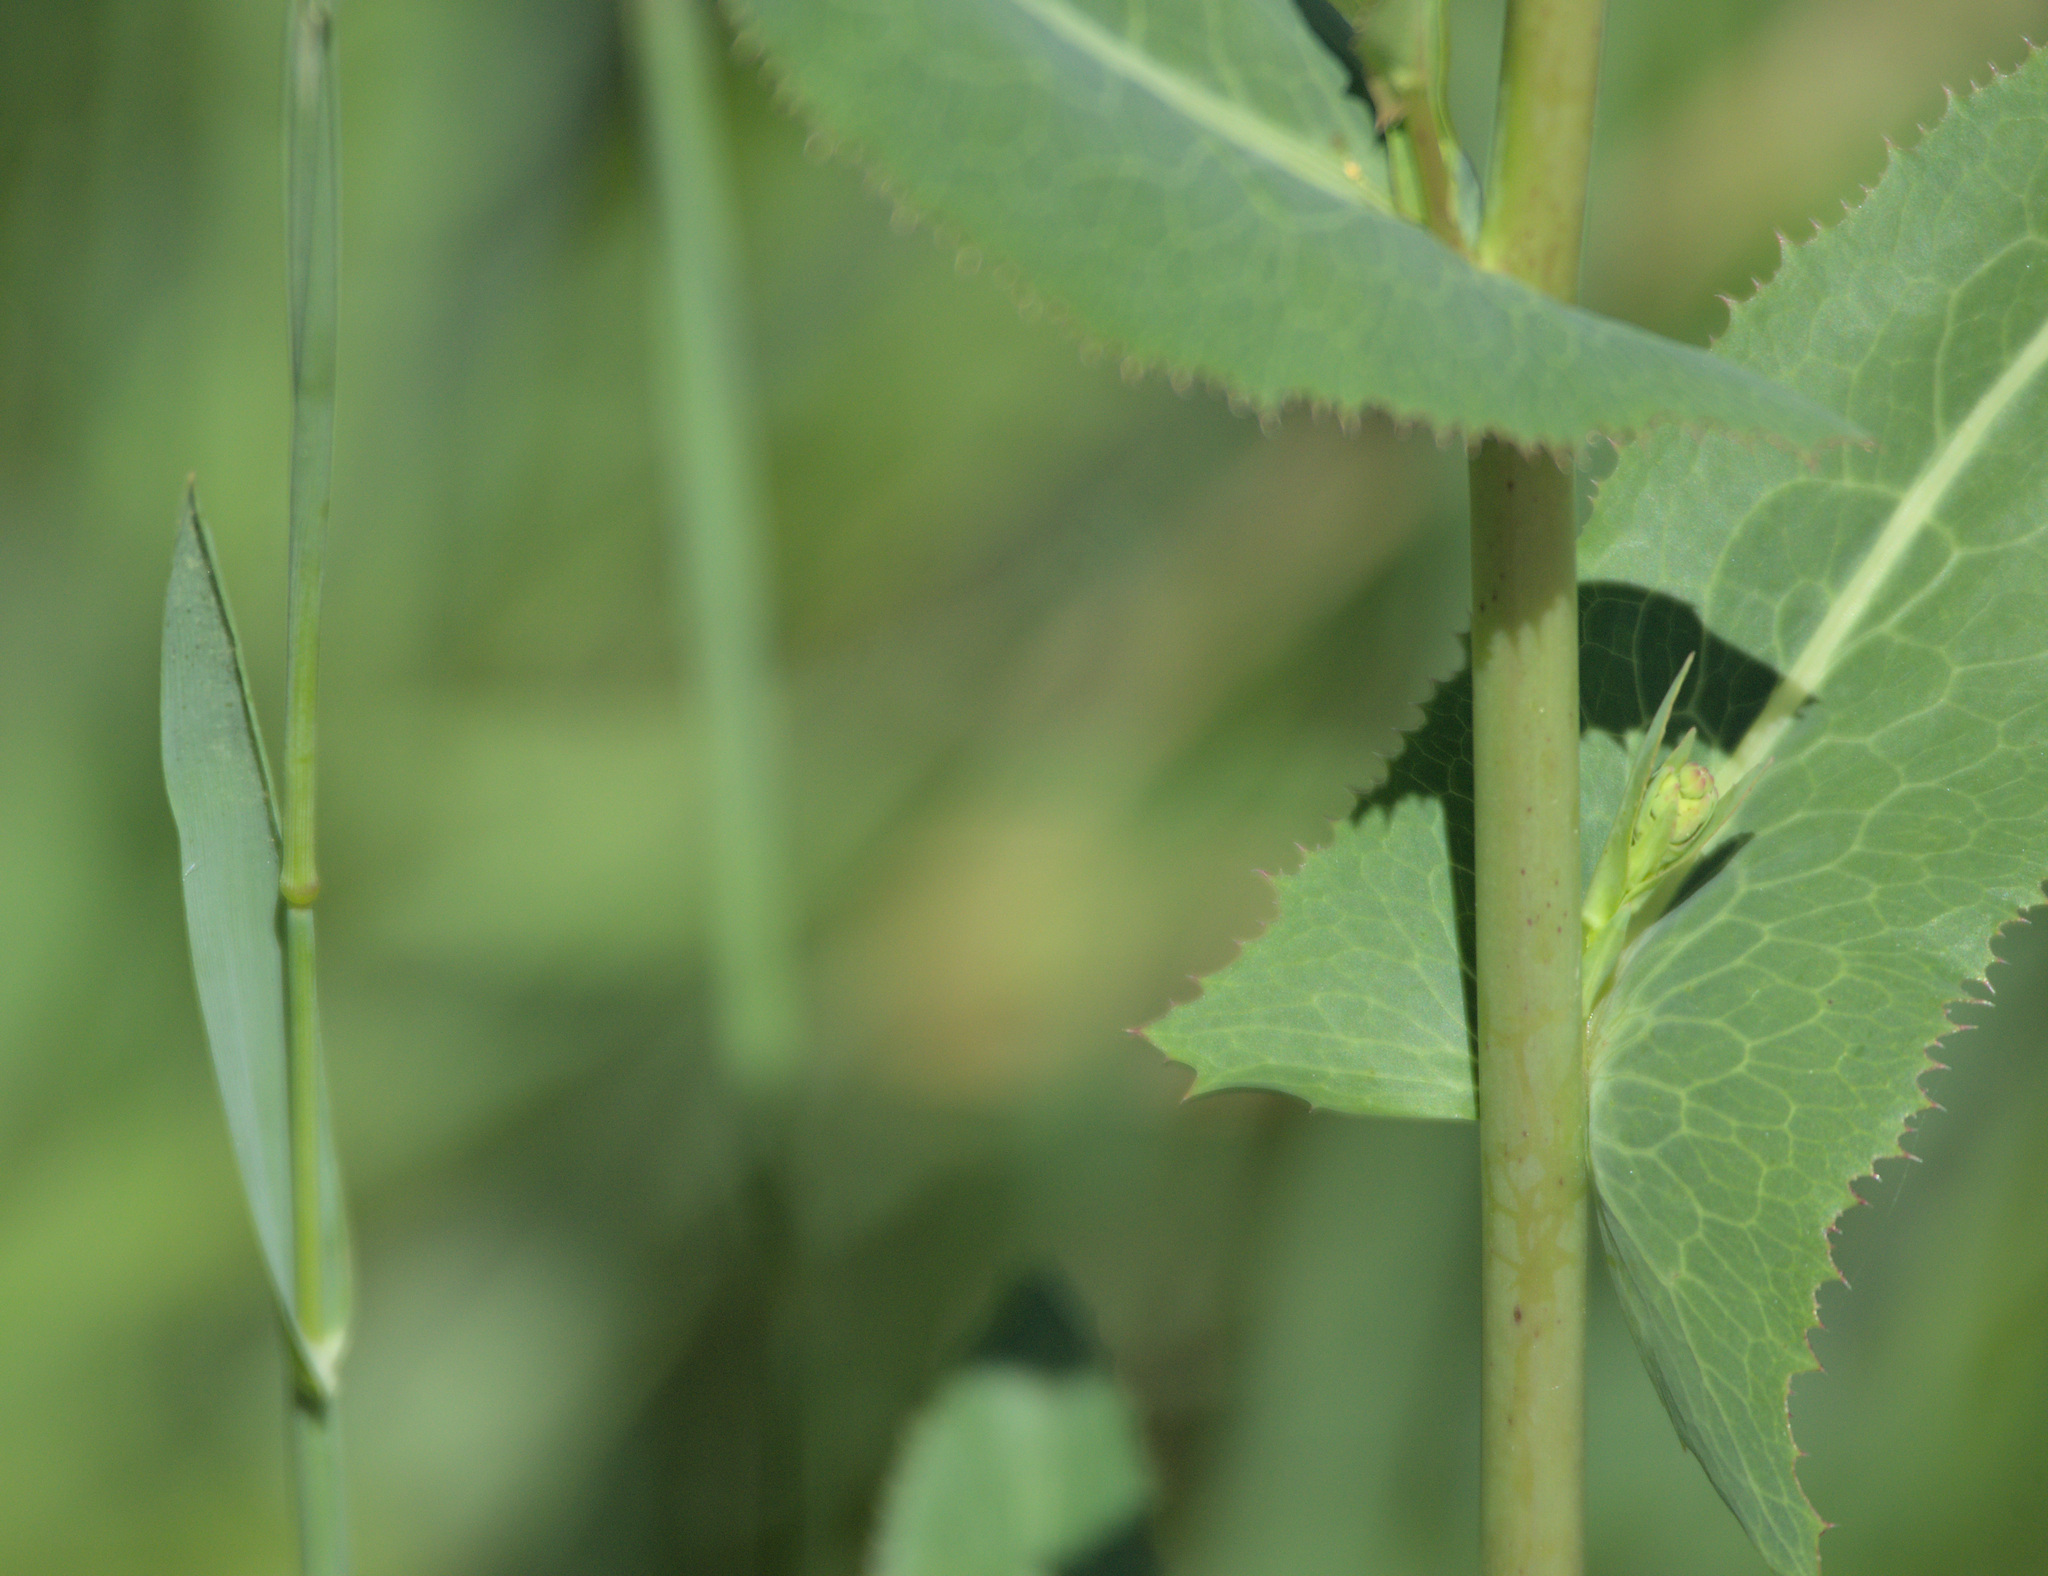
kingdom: Plantae
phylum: Tracheophyta
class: Magnoliopsida
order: Asterales
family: Asteraceae
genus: Lactuca
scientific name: Lactuca serriola
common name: Prickly lettuce
